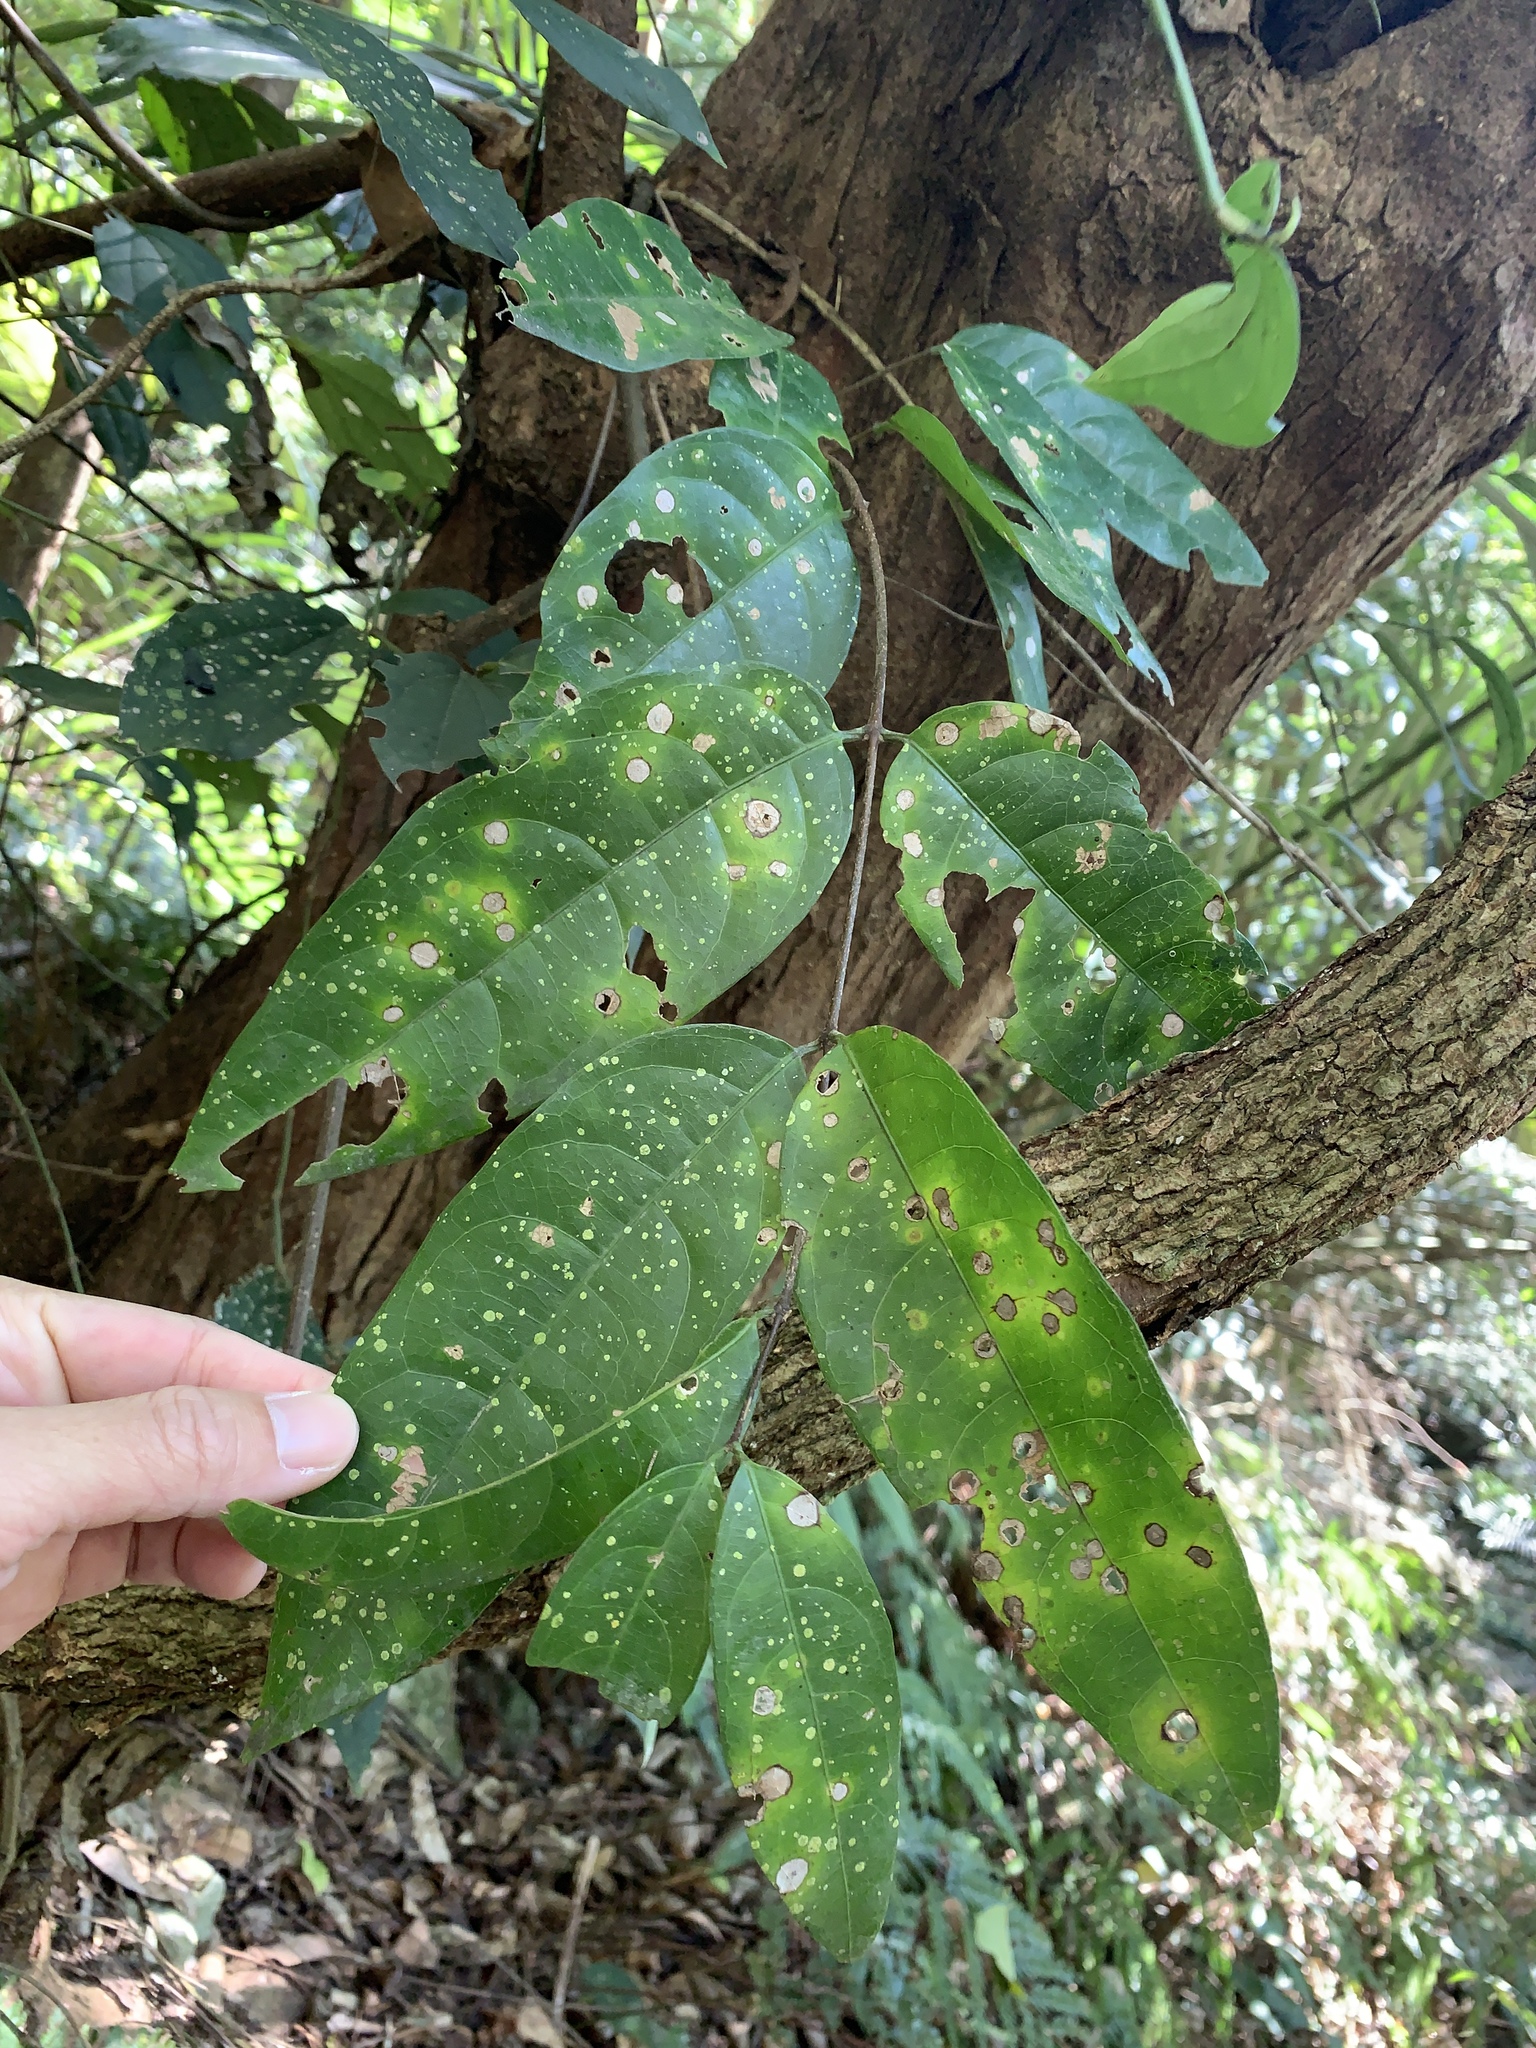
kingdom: Plantae
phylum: Tracheophyta
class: Magnoliopsida
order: Malpighiales
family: Malpighiaceae
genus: Hiptage
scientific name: Hiptage benghalensis
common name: Hiptage
